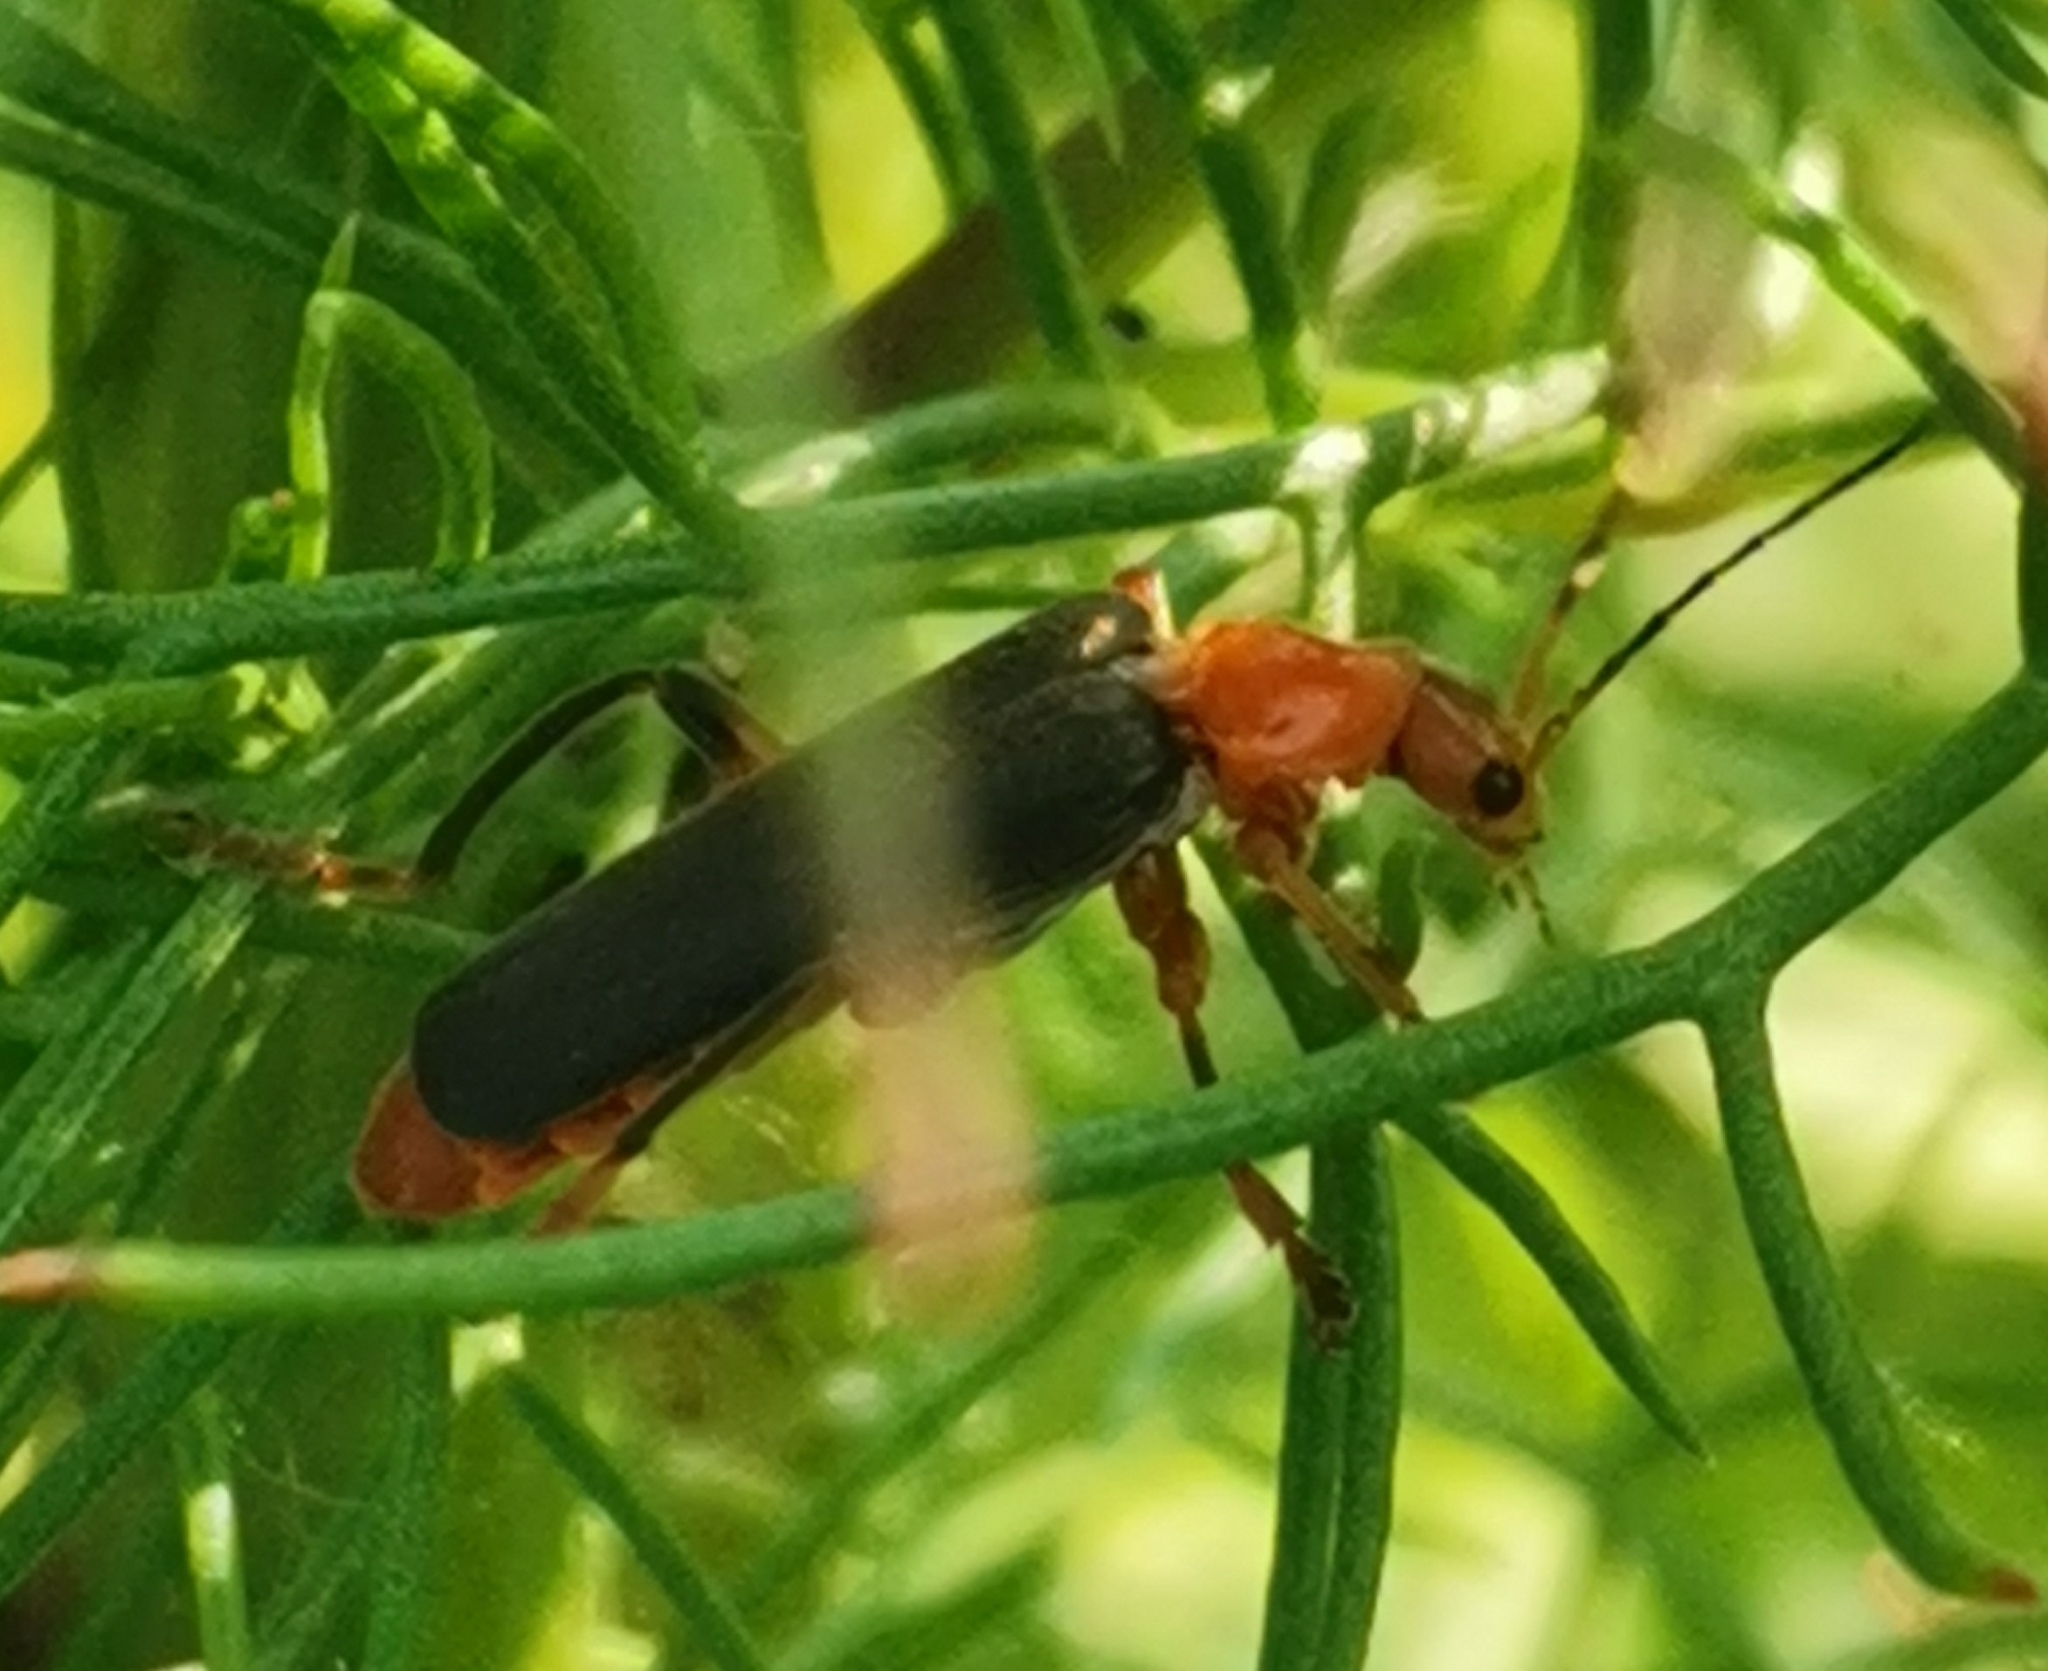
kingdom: Animalia
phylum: Arthropoda
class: Insecta
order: Coleoptera
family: Cantharidae
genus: Cantharis
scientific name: Cantharis livida
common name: Livid soldier beetle
